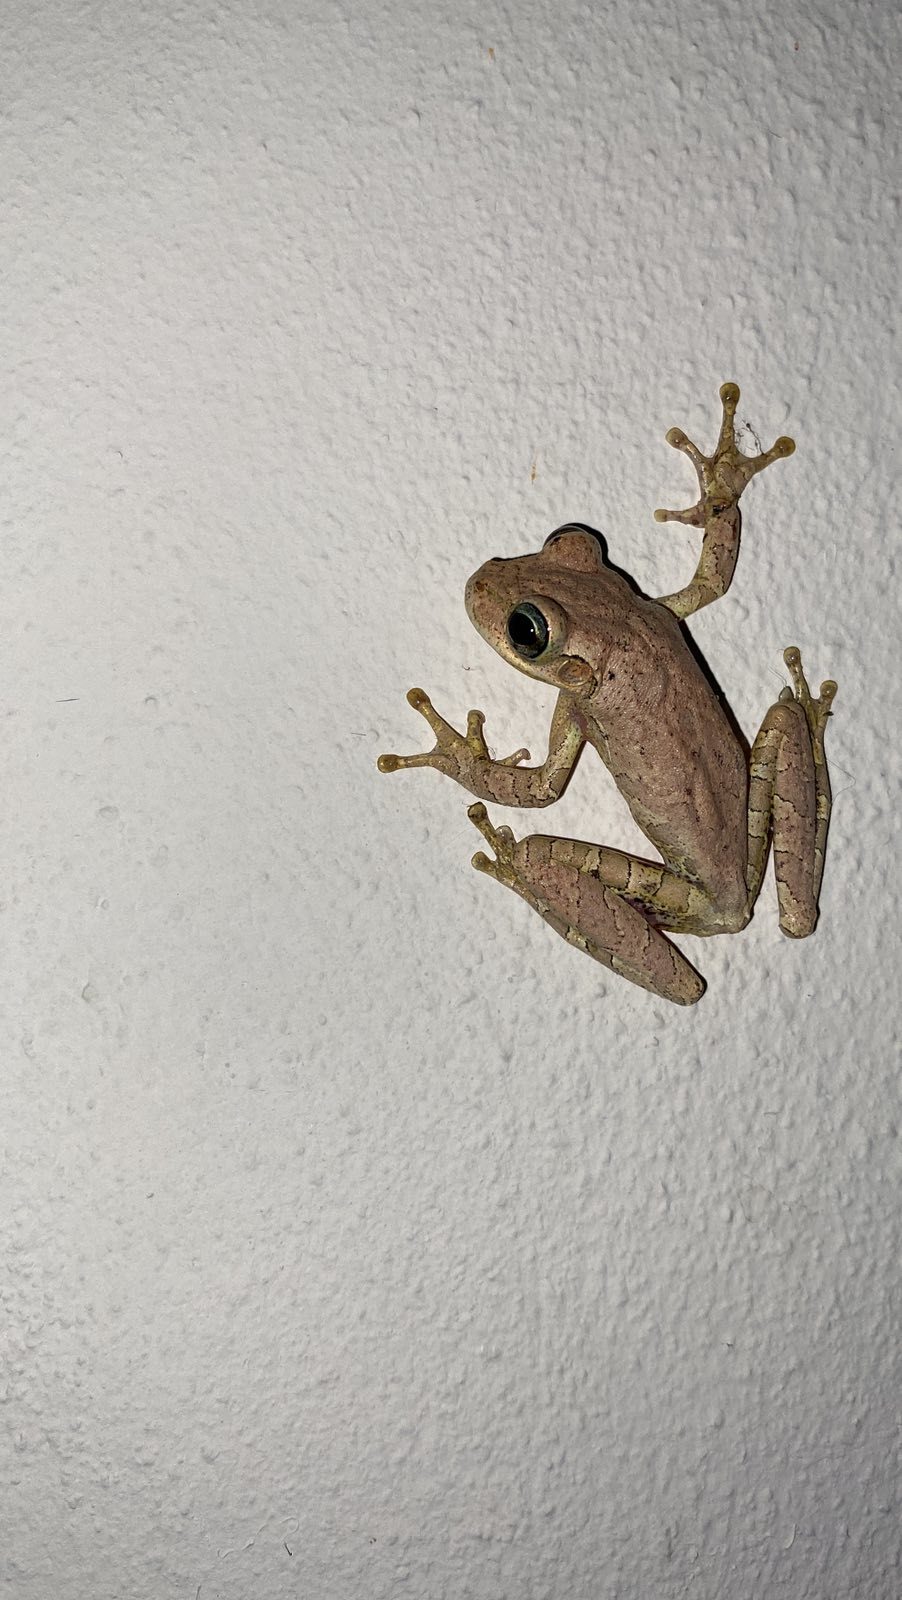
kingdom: Animalia
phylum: Chordata
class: Amphibia
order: Anura
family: Hylidae
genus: Osteopilus
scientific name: Osteopilus dominicensis
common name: Hispaniolan common treefrog
